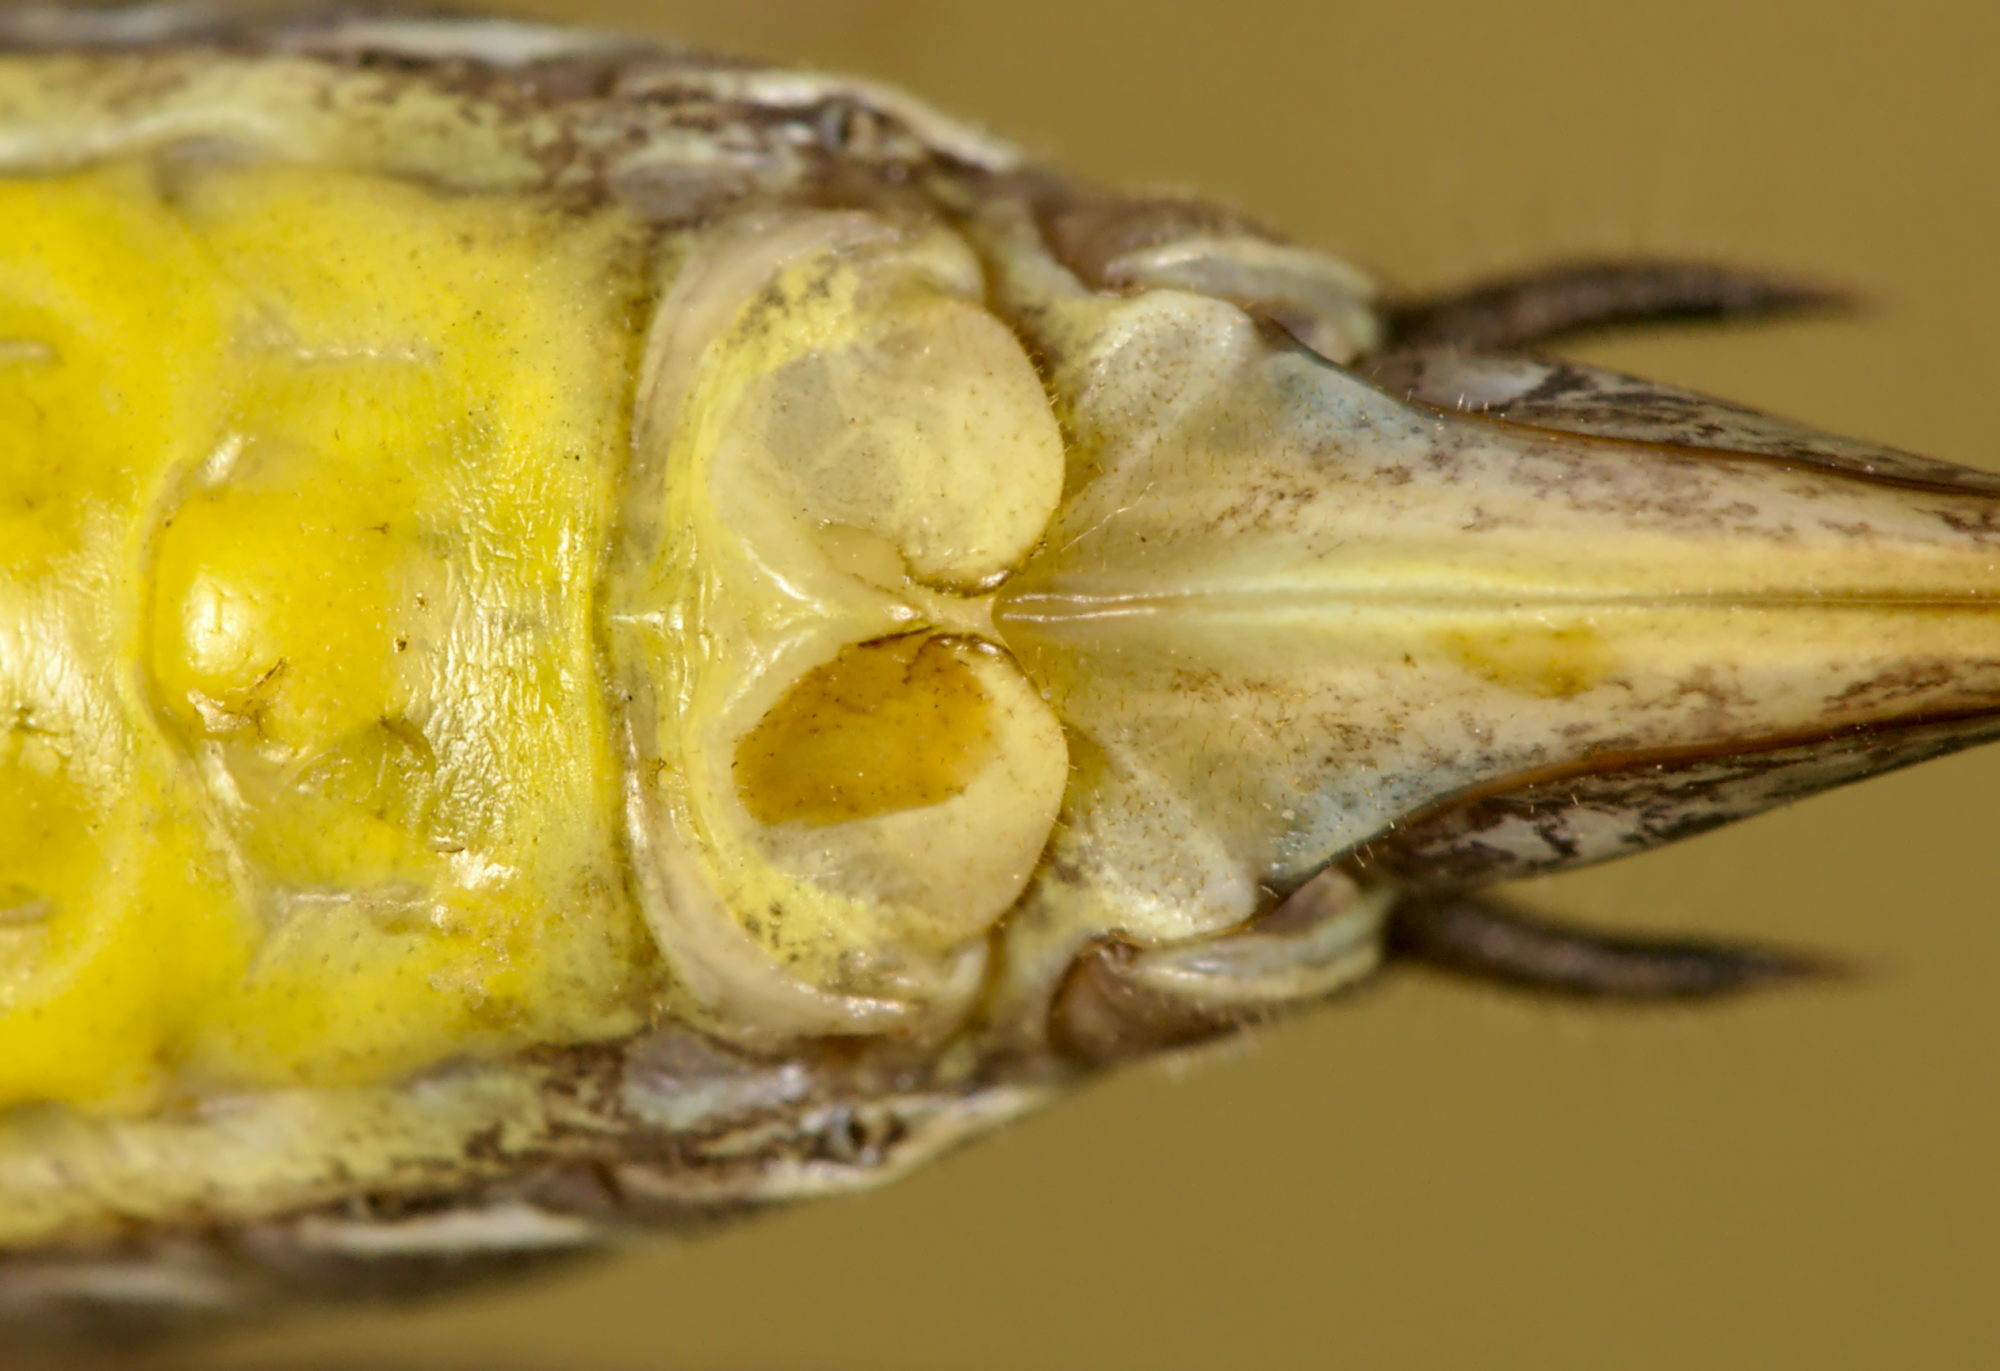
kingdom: Animalia
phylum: Arthropoda
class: Insecta
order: Orthoptera
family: Tettigoniidae
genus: Pholidoptera
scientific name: Pholidoptera fallax
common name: Fischer's bush-cricket
